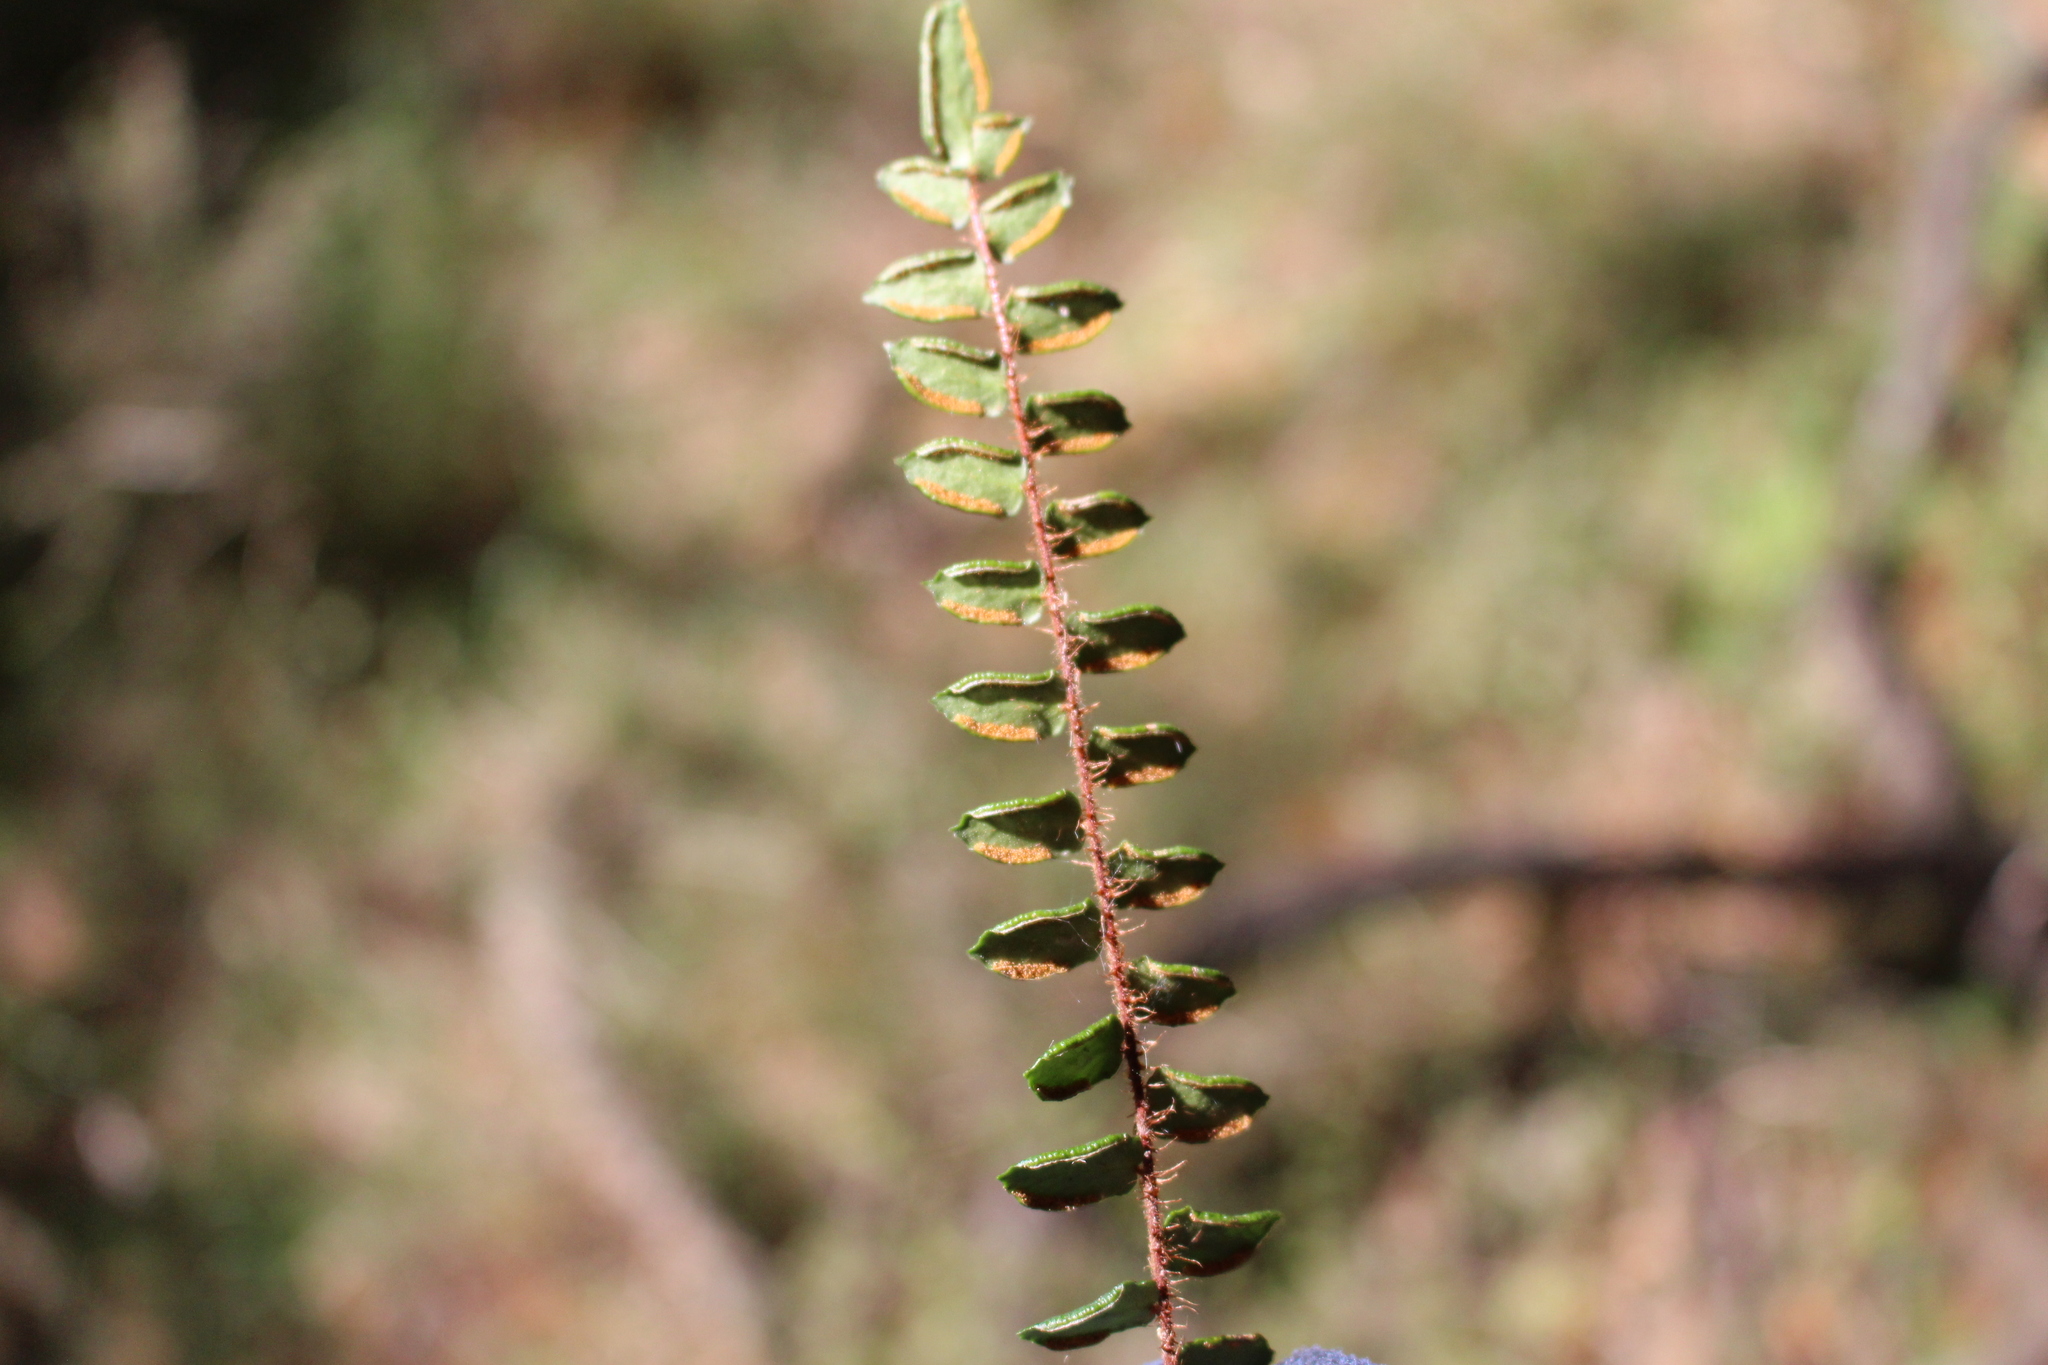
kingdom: Plantae
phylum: Tracheophyta
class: Polypodiopsida
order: Polypodiales
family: Pteridaceae
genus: Pellaea
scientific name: Pellaea rotundifolia
